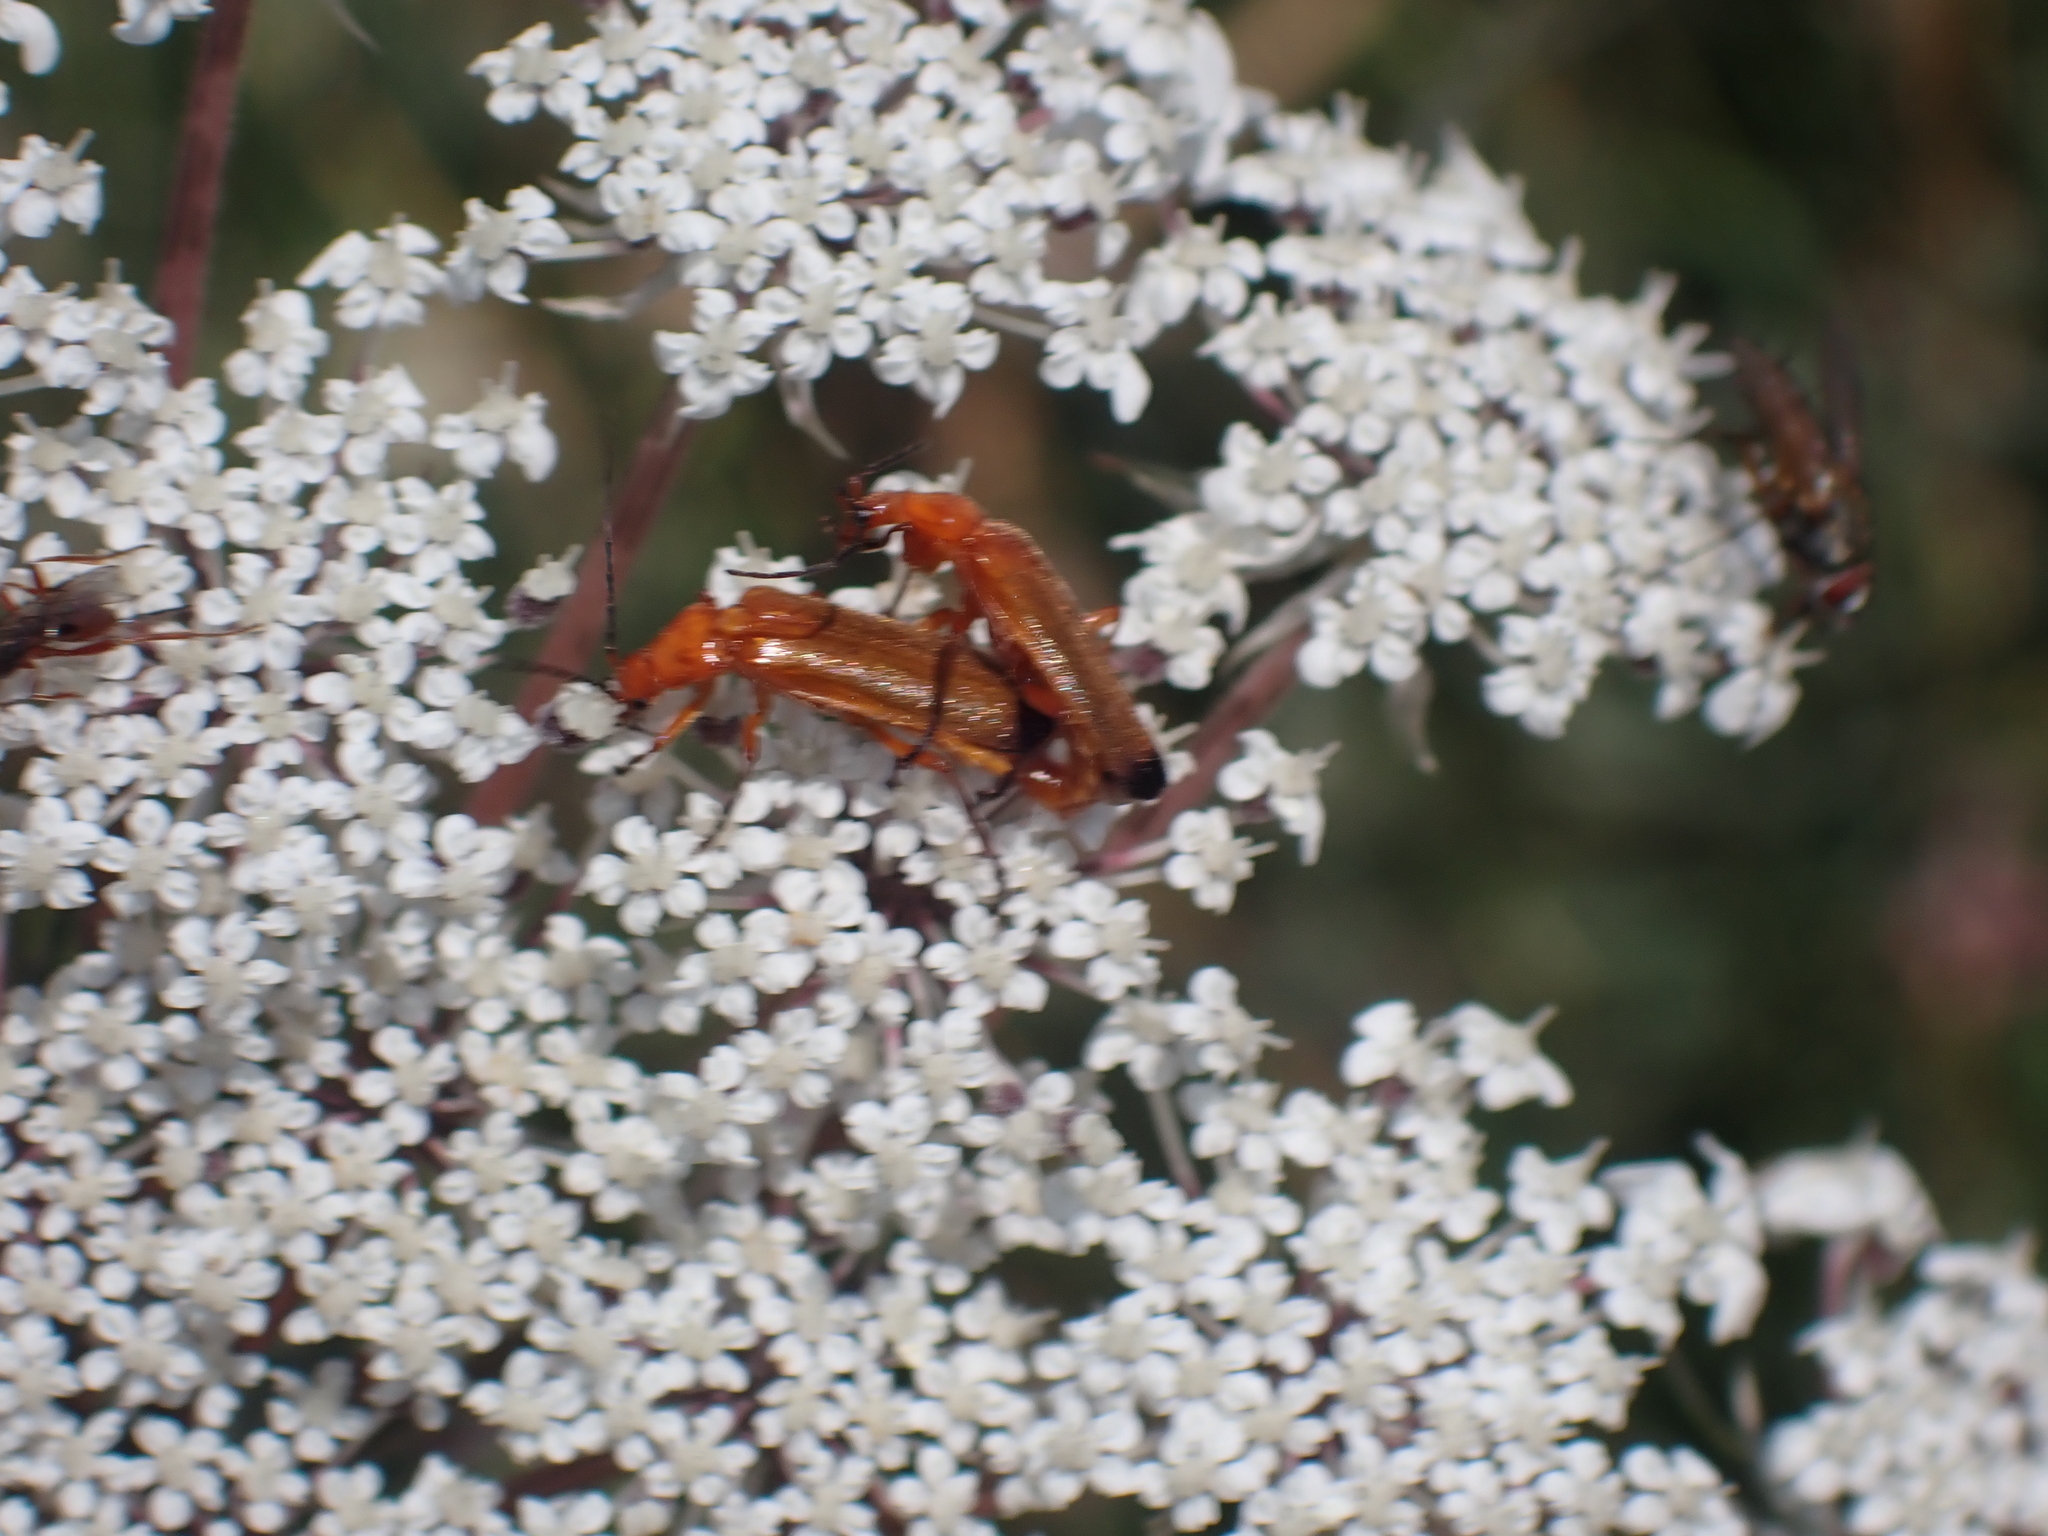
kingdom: Animalia
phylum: Arthropoda
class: Insecta
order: Coleoptera
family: Cantharidae
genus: Rhagonycha
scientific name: Rhagonycha fulva
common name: Common red soldier beetle
